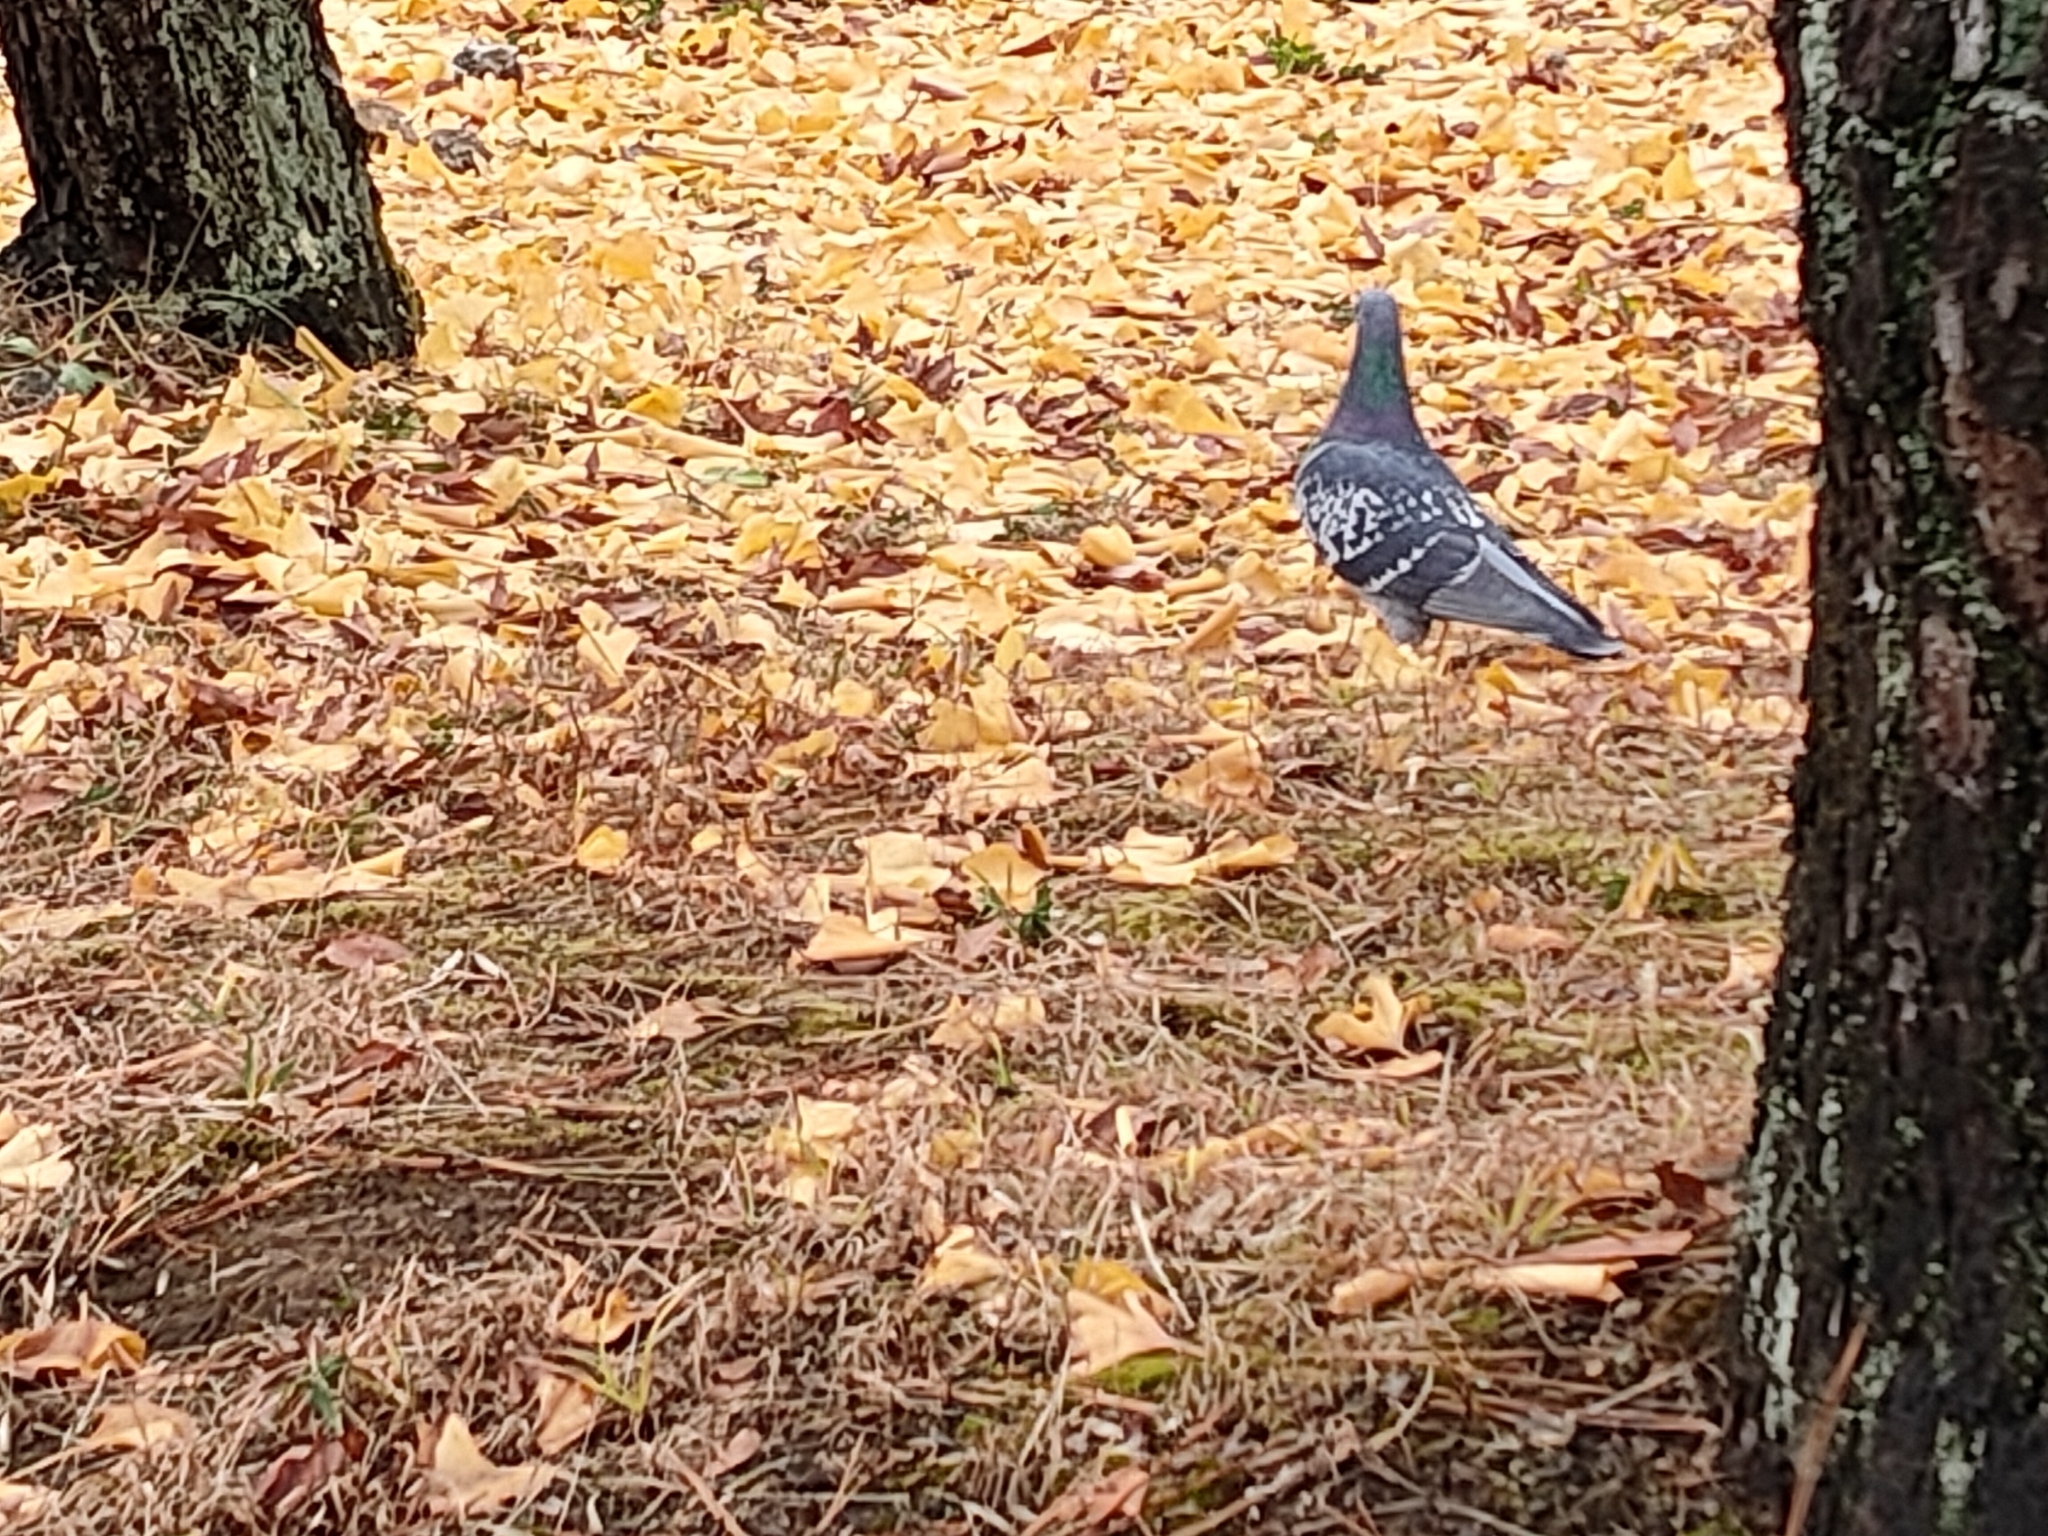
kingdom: Animalia
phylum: Chordata
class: Aves
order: Columbiformes
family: Columbidae
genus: Columba
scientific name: Columba livia
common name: Rock pigeon
